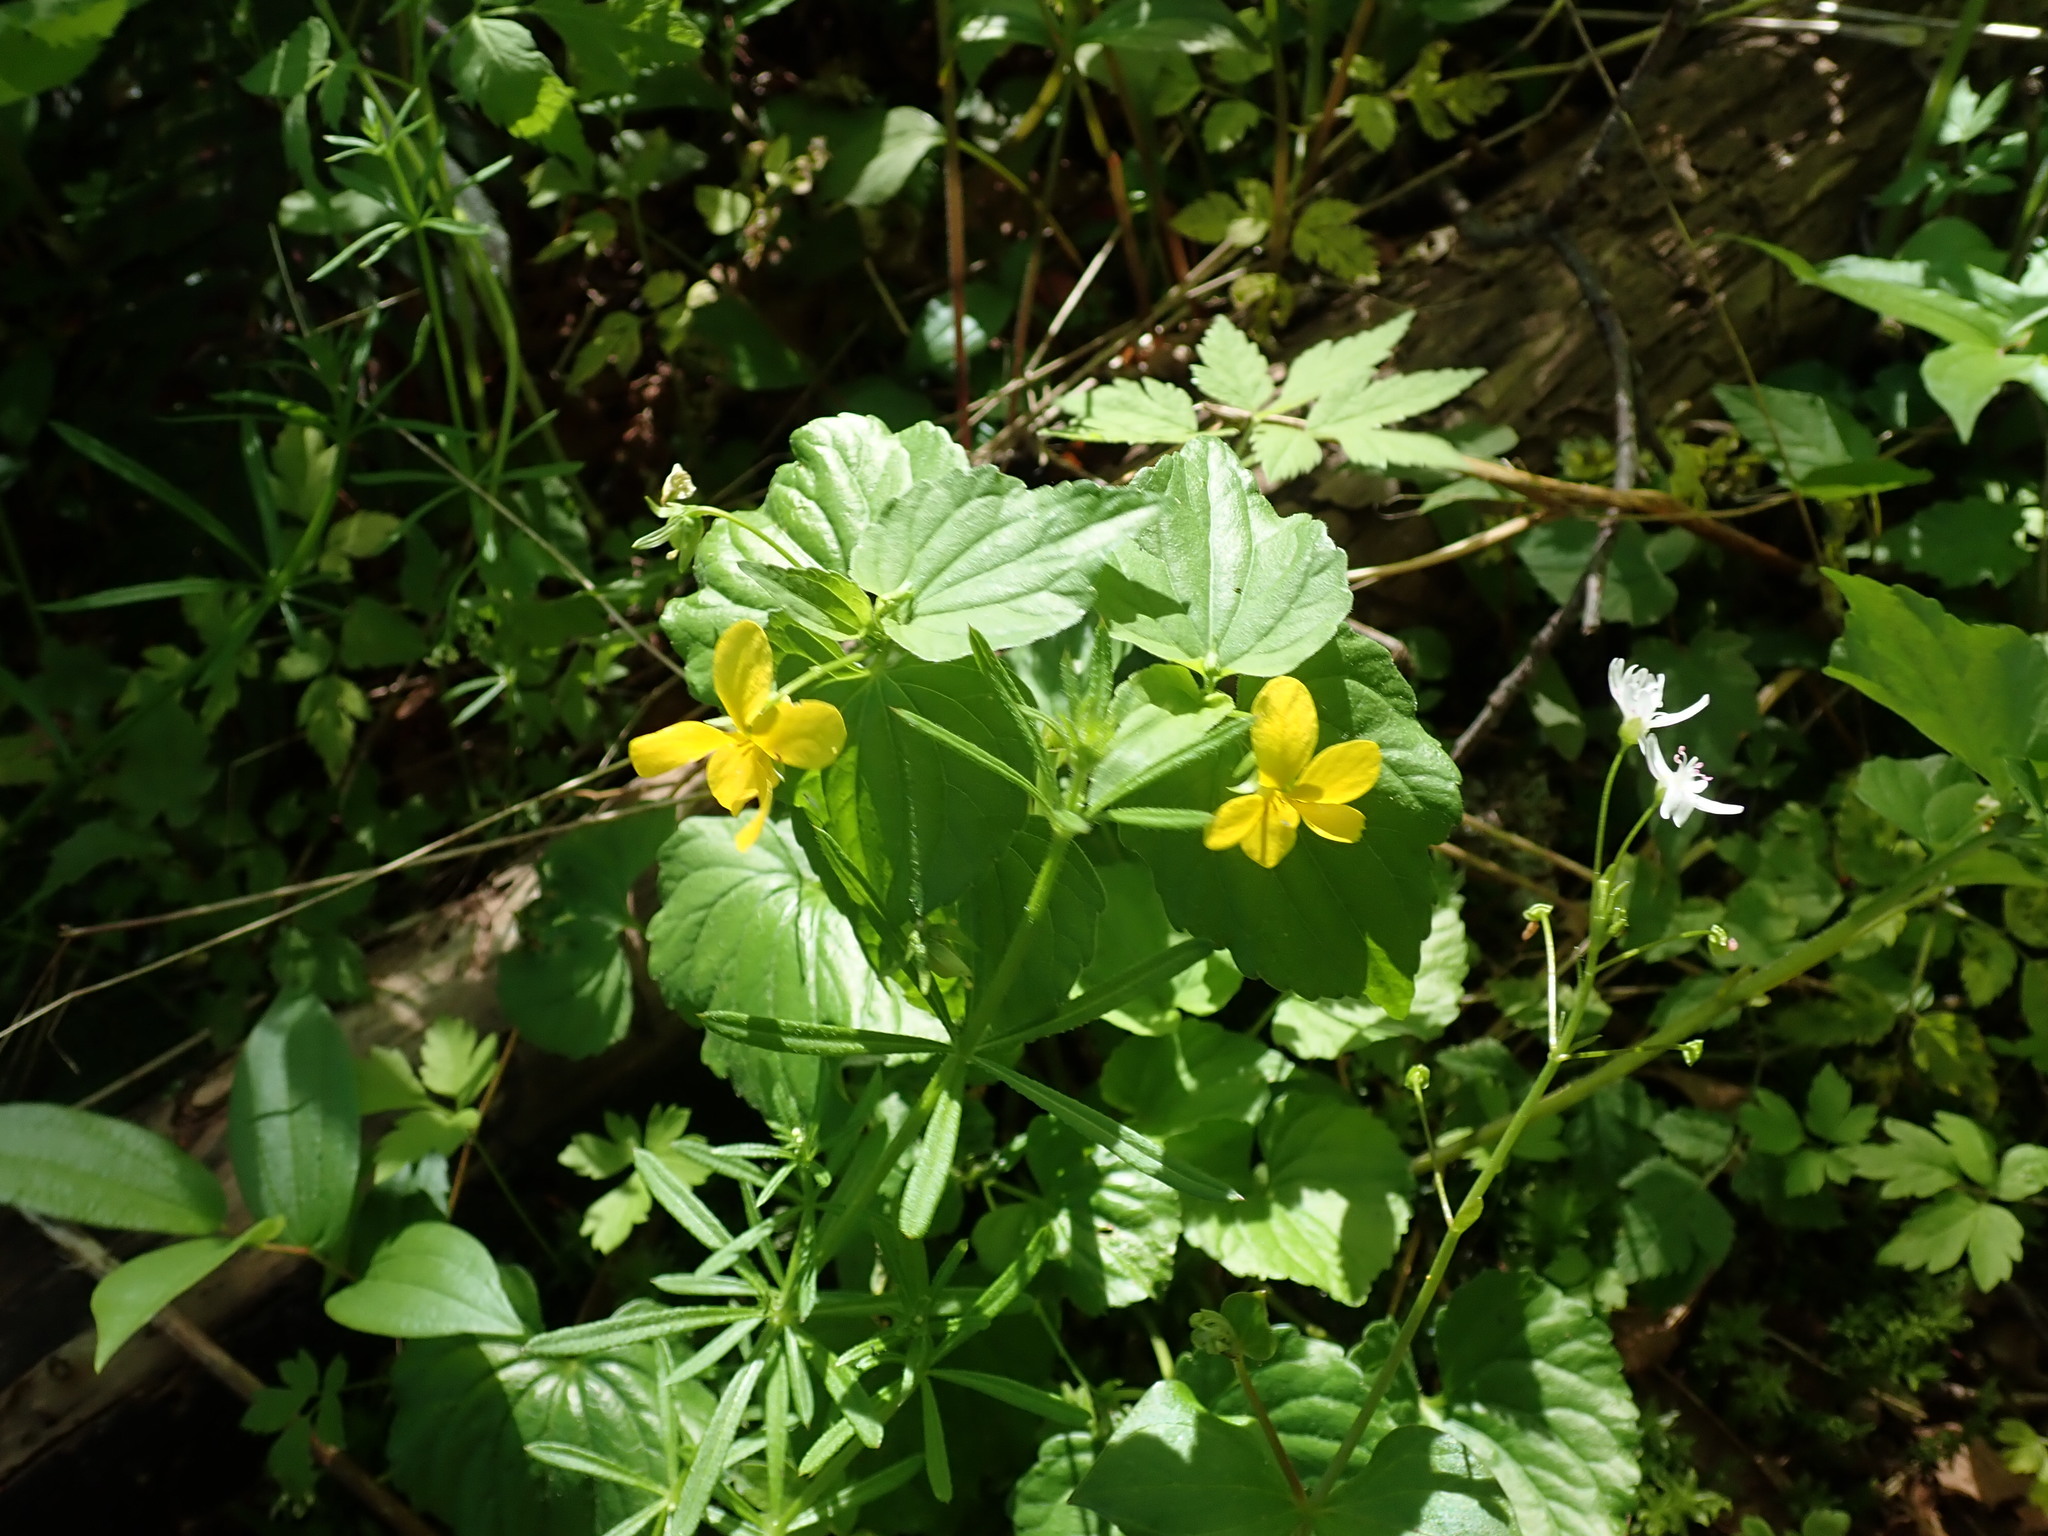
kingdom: Plantae
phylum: Tracheophyta
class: Magnoliopsida
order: Malpighiales
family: Violaceae
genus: Viola
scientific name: Viola glabella
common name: Stream violet
